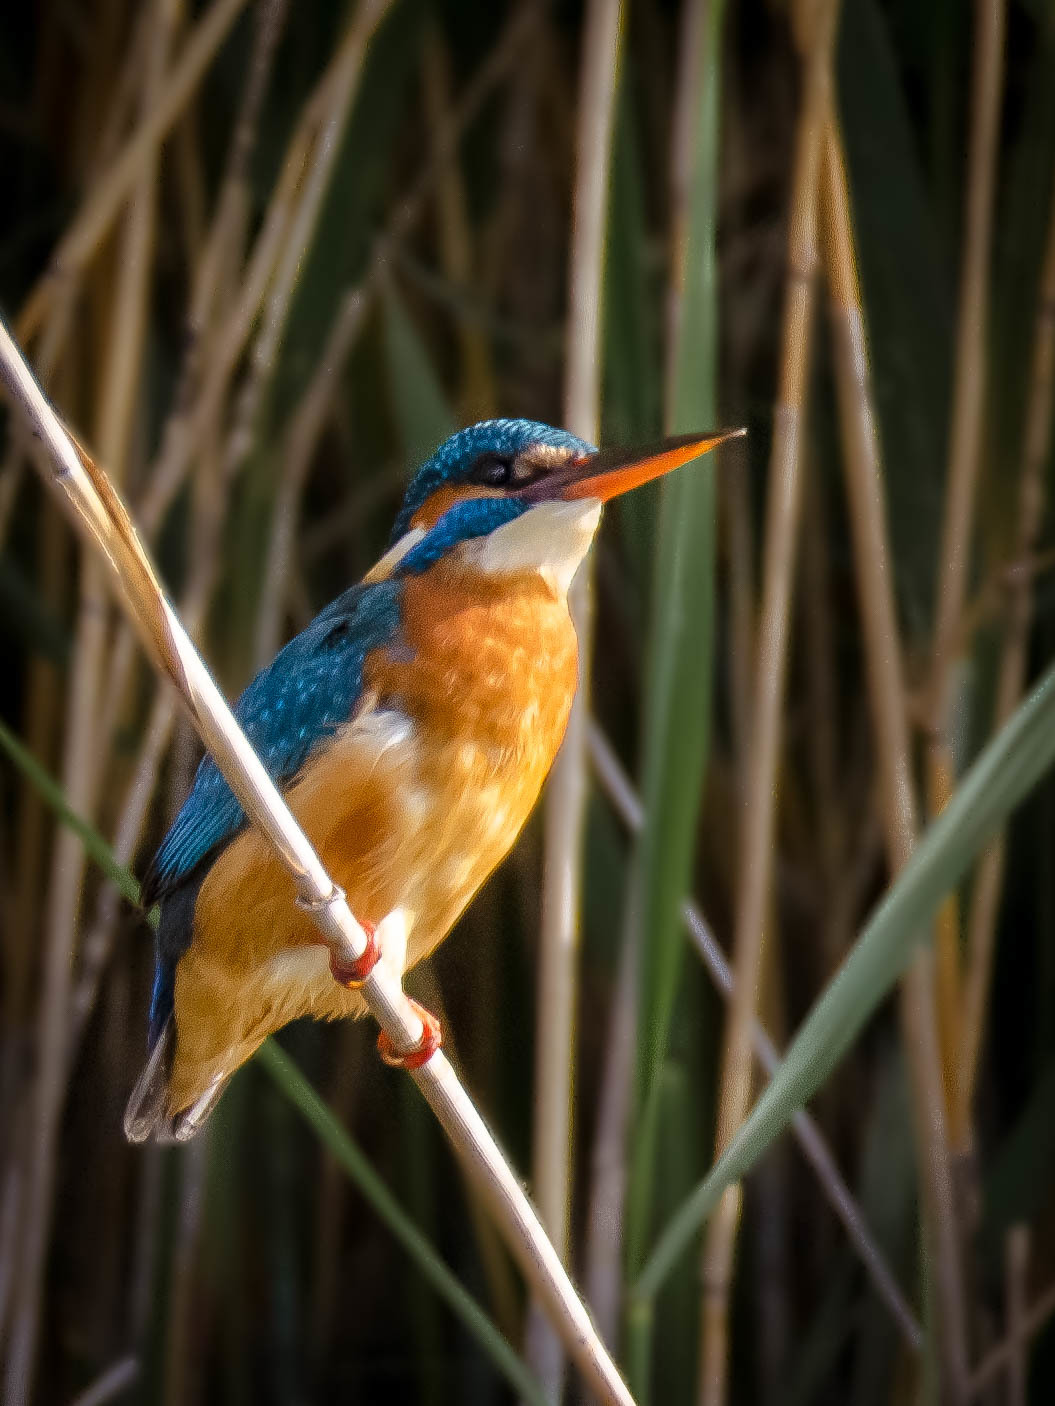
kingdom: Animalia
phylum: Chordata
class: Aves
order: Coraciiformes
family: Alcedinidae
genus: Alcedo
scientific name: Alcedo atthis
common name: Common kingfisher
